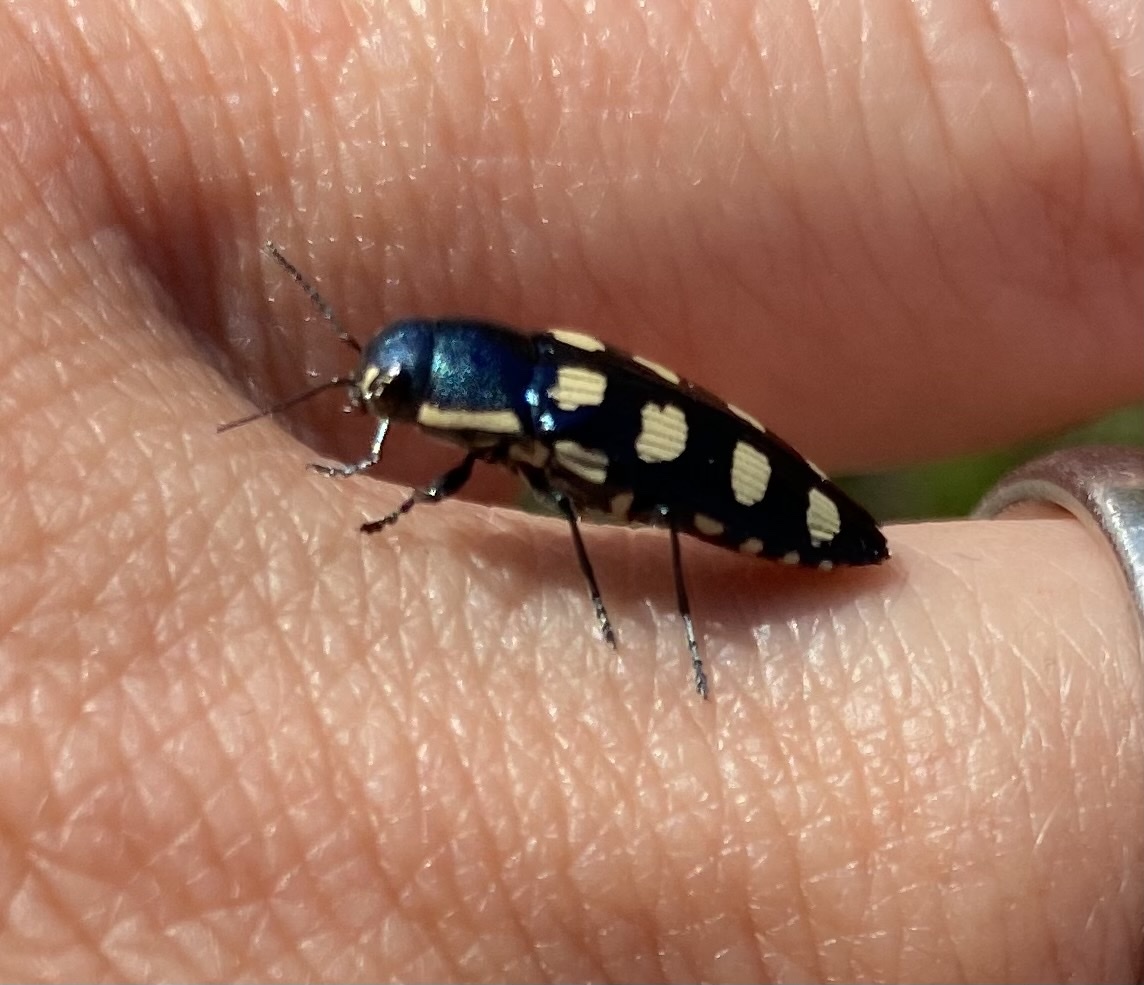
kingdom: Animalia
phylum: Arthropoda
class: Insecta
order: Coleoptera
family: Buprestidae
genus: Buprestis
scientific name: Buprestis octoguttata
